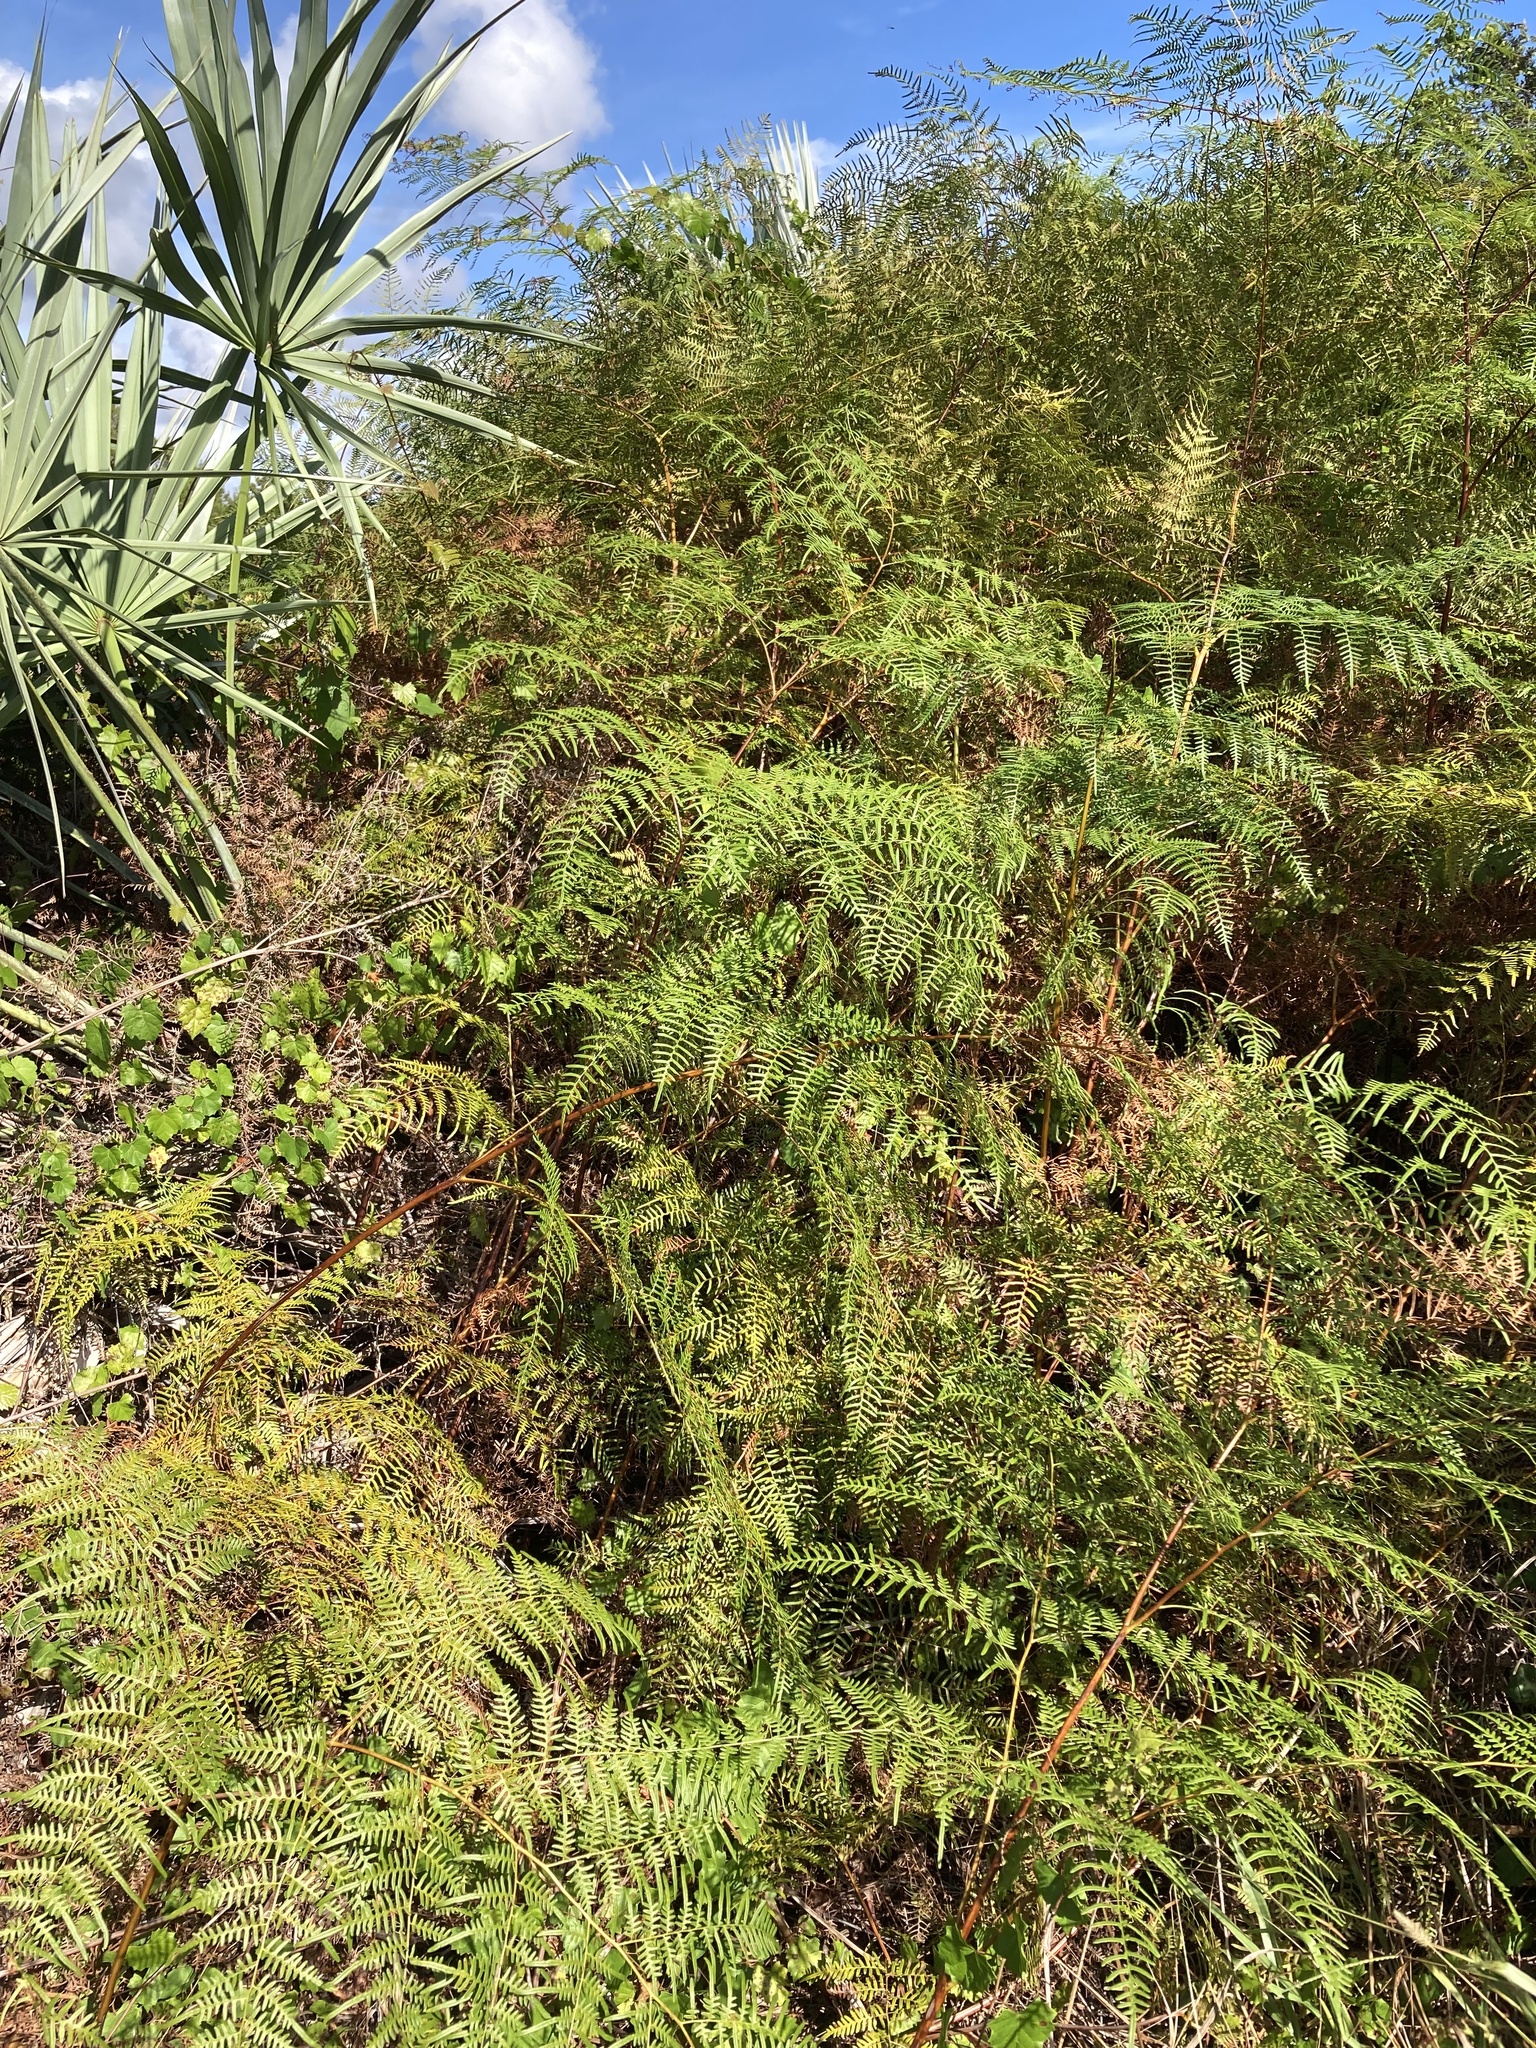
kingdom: Plantae
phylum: Tracheophyta
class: Polypodiopsida
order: Polypodiales
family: Dennstaedtiaceae
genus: Pteridium
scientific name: Pteridium caudatum
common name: Southern bracken fern
